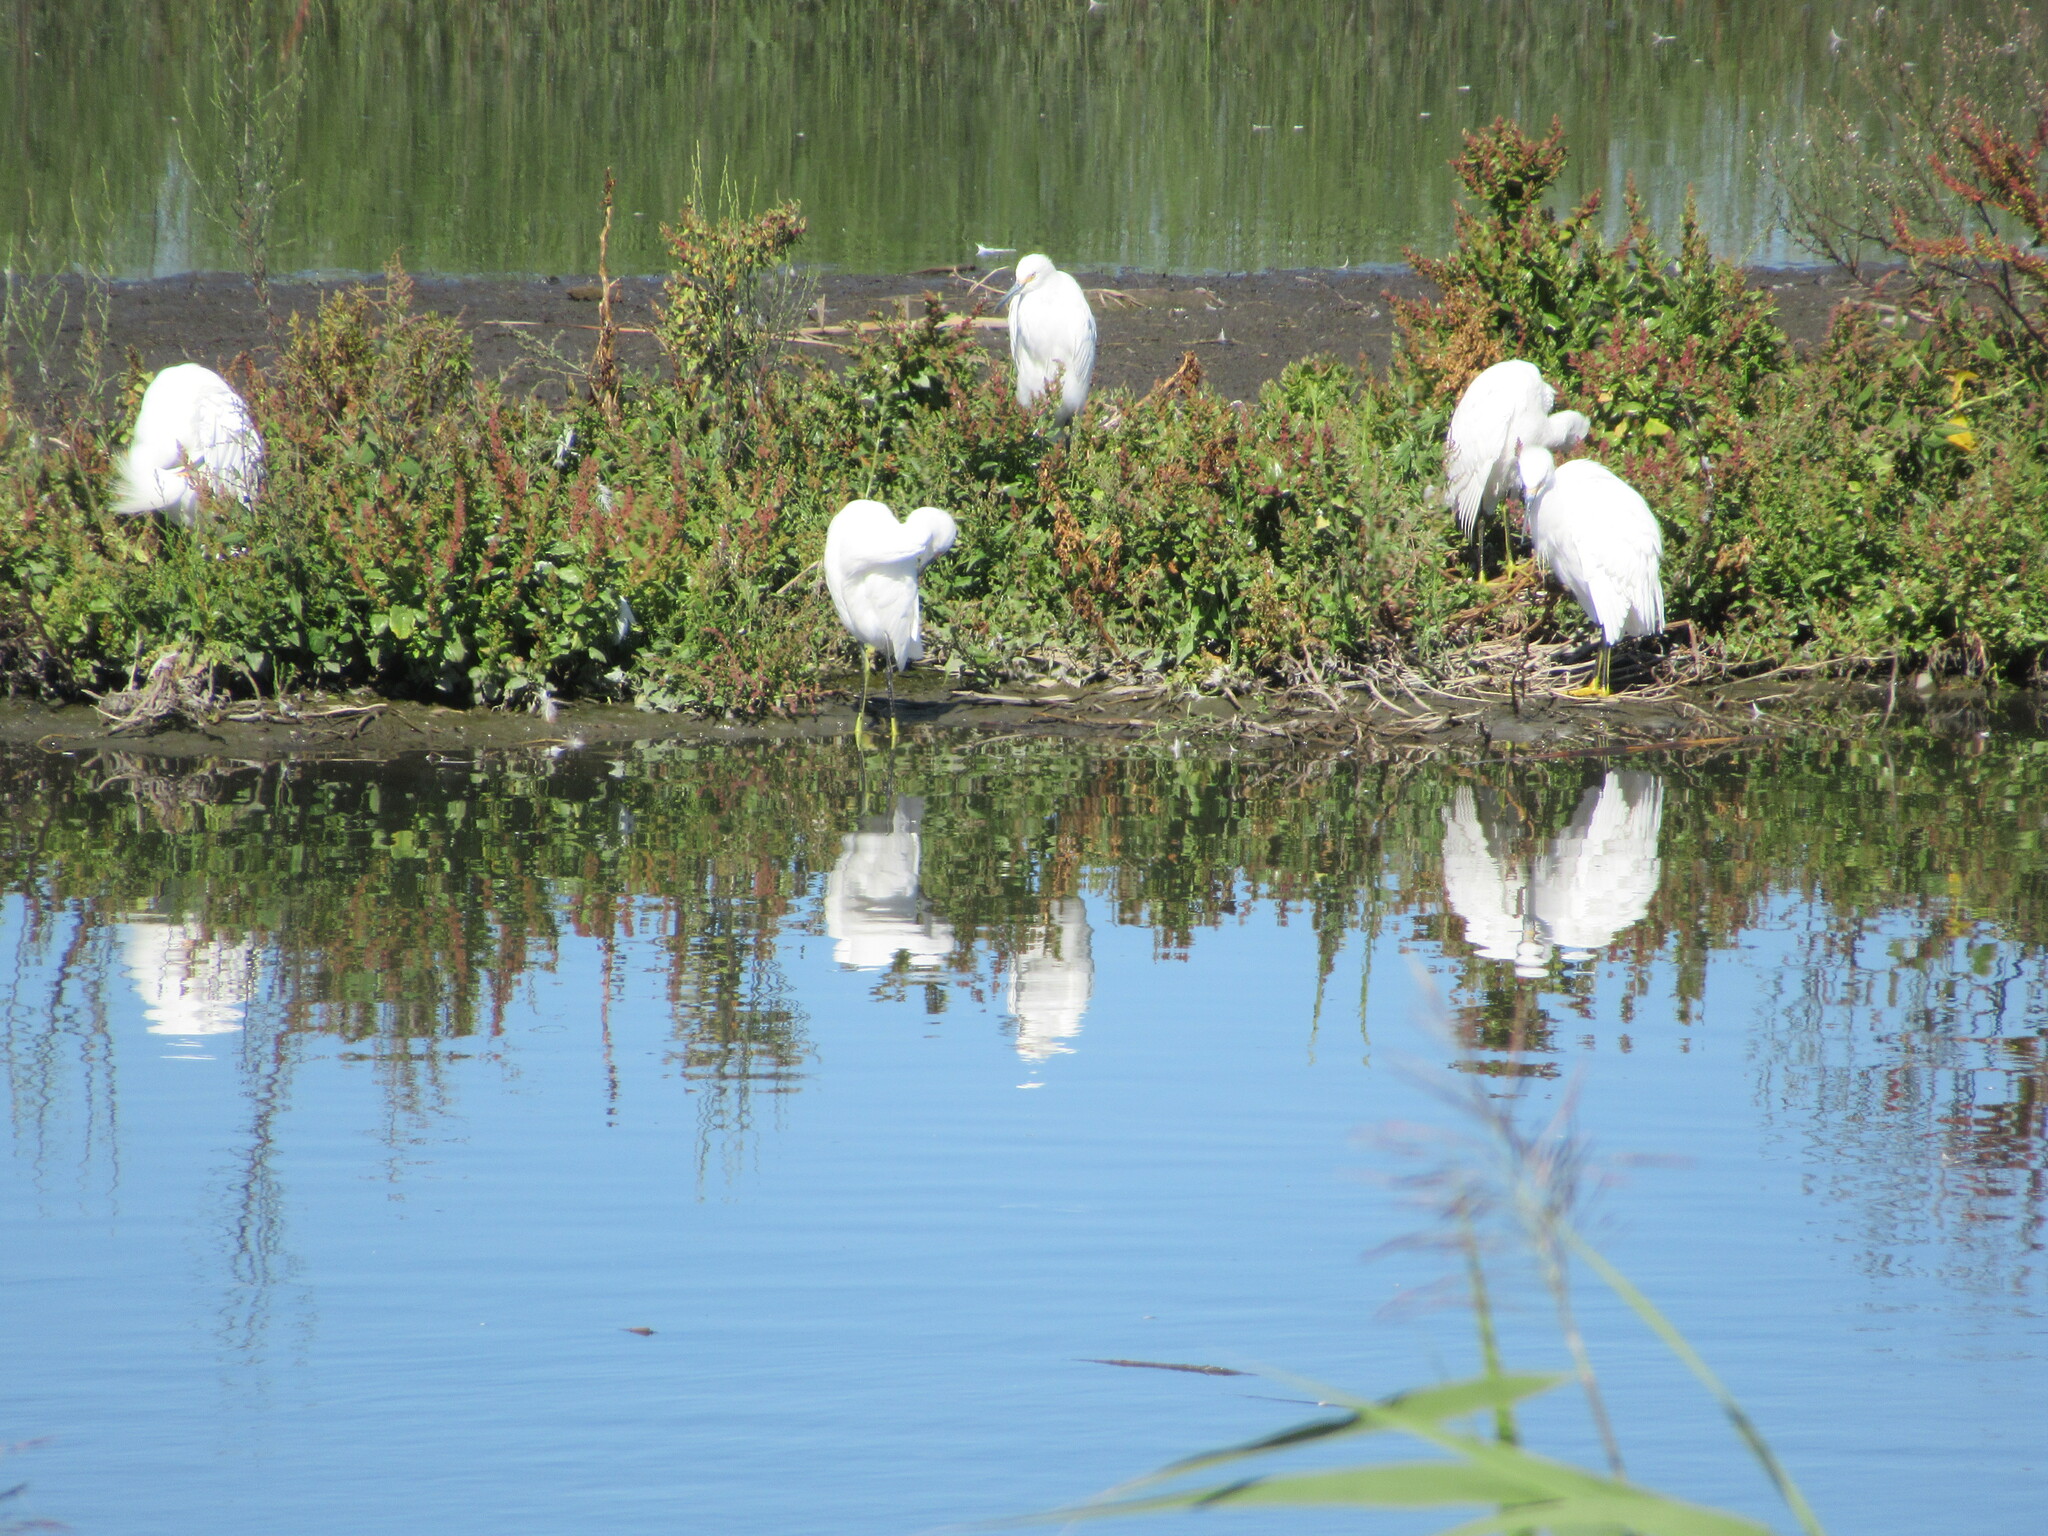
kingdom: Animalia
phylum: Chordata
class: Aves
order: Pelecaniformes
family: Ardeidae
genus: Egretta
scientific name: Egretta thula
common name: Snowy egret
